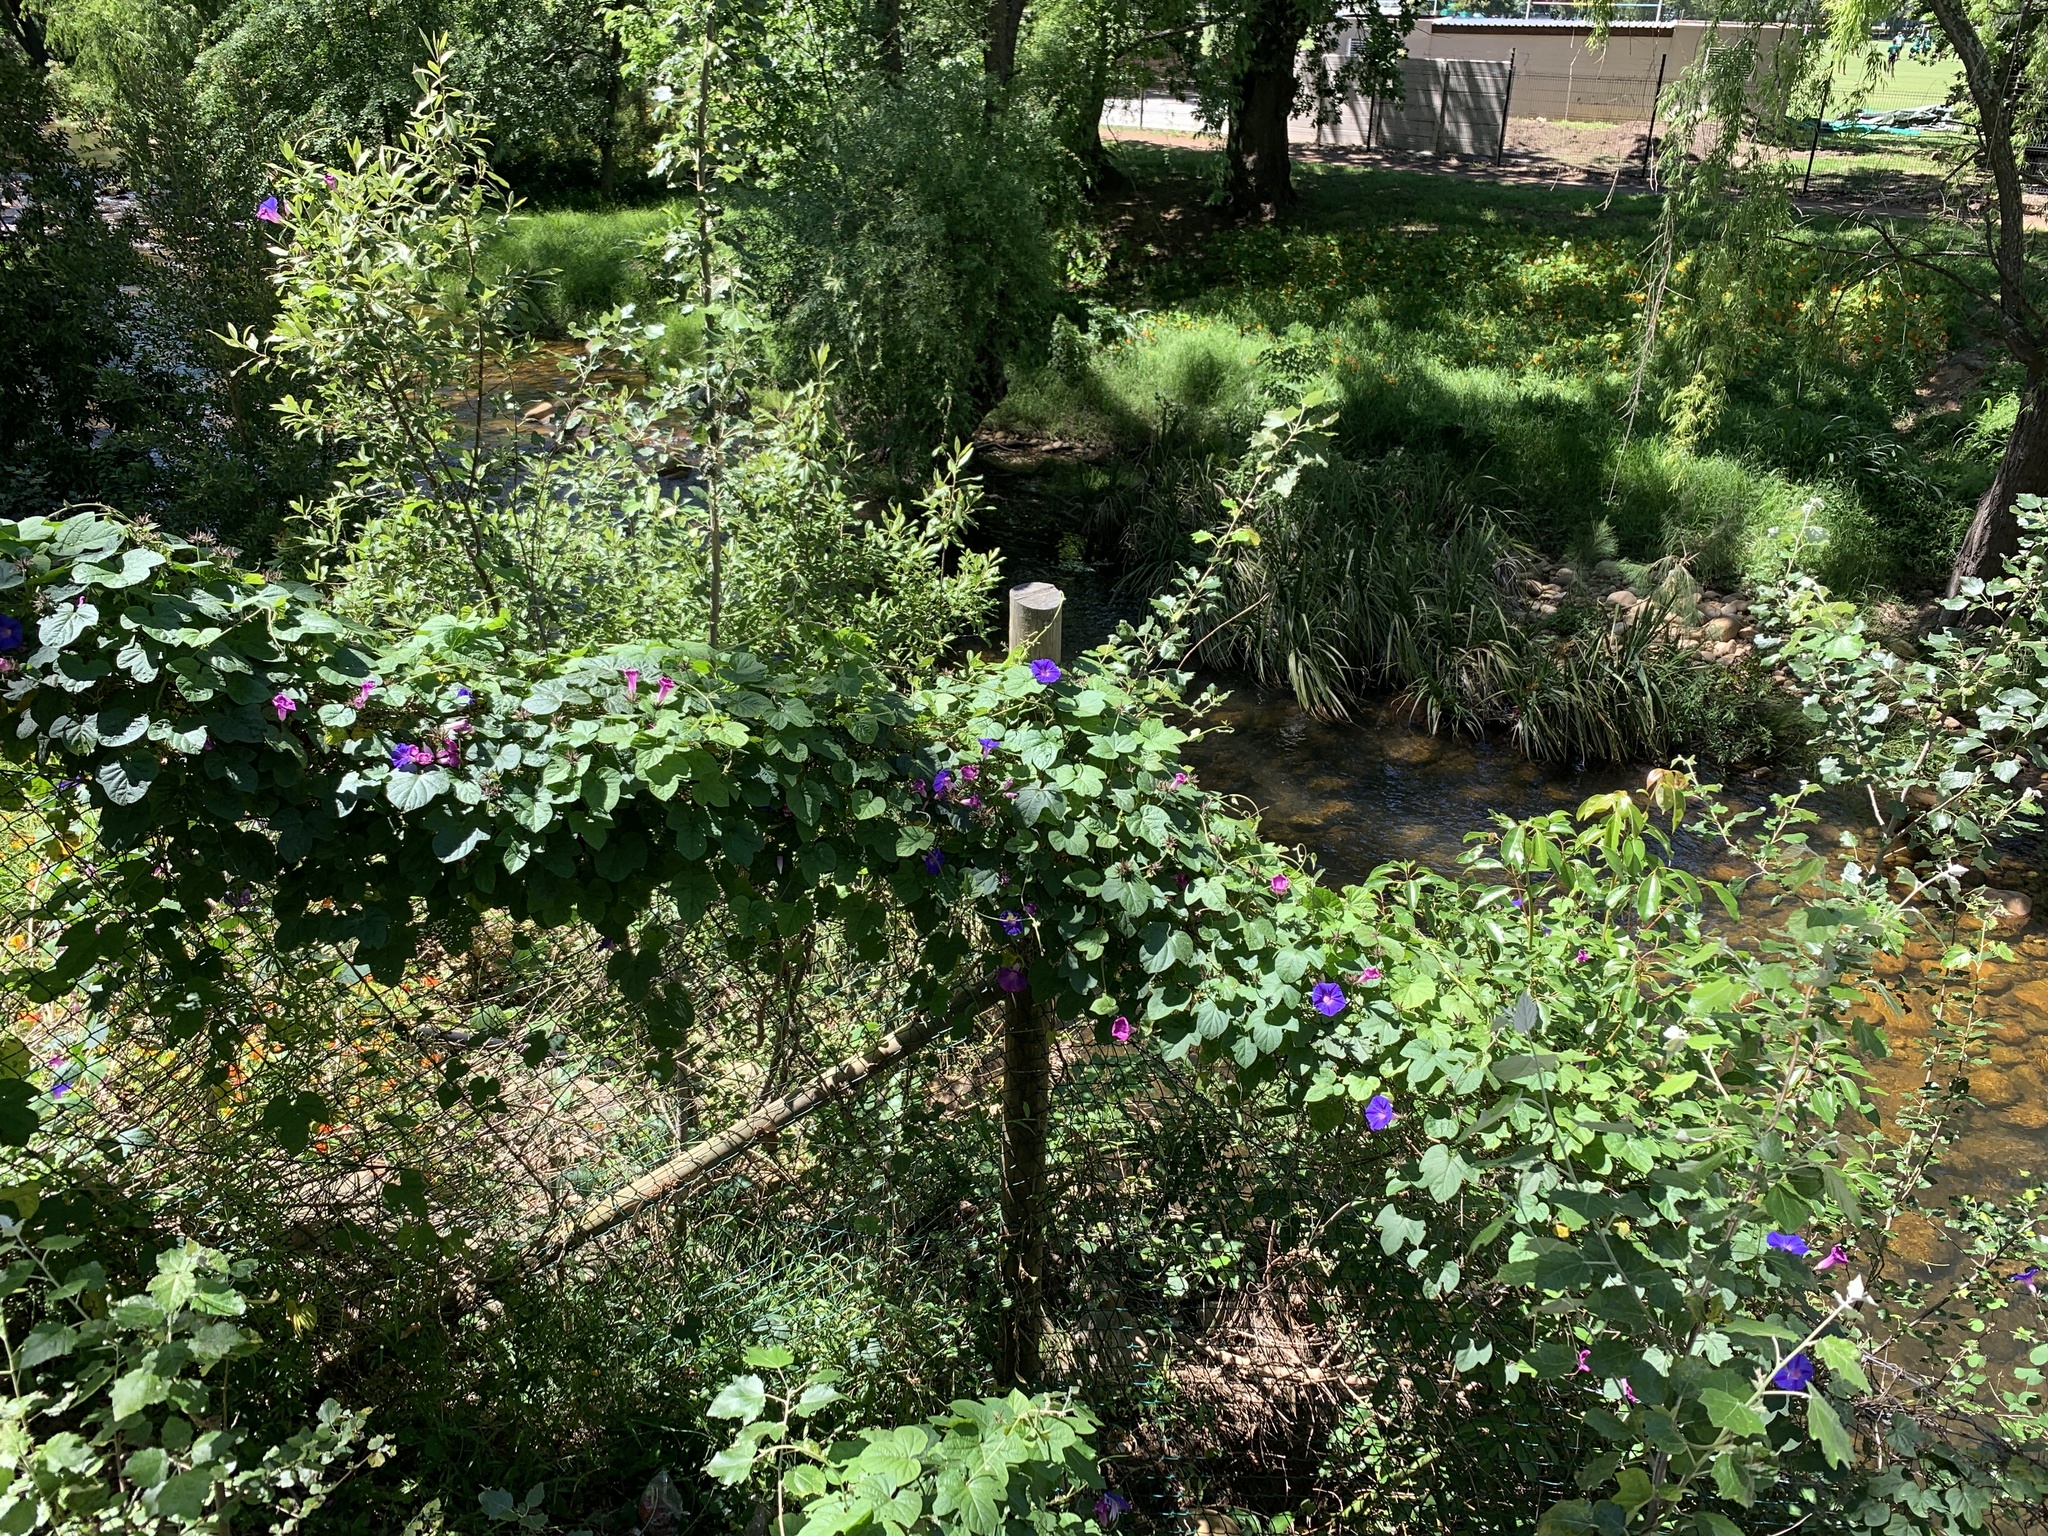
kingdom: Plantae
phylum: Tracheophyta
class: Magnoliopsida
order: Solanales
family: Convolvulaceae
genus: Ipomoea
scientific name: Ipomoea indica
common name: Blue dawnflower
